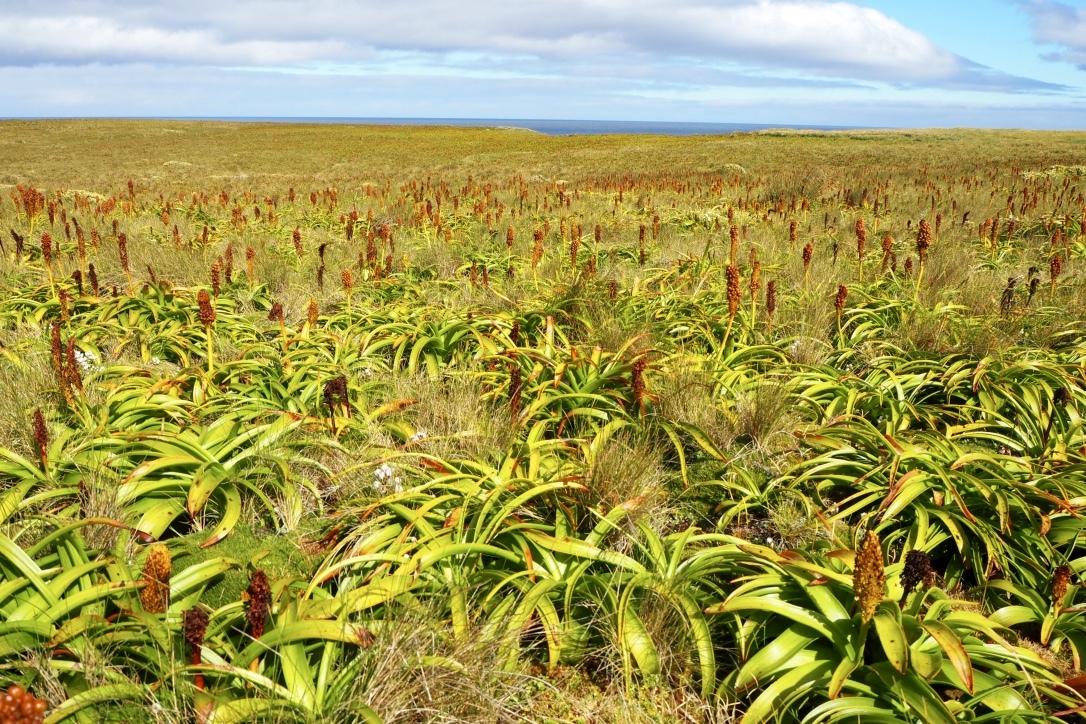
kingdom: Plantae
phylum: Tracheophyta
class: Liliopsida
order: Asparagales
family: Asphodelaceae
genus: Bulbinella
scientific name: Bulbinella rossii
